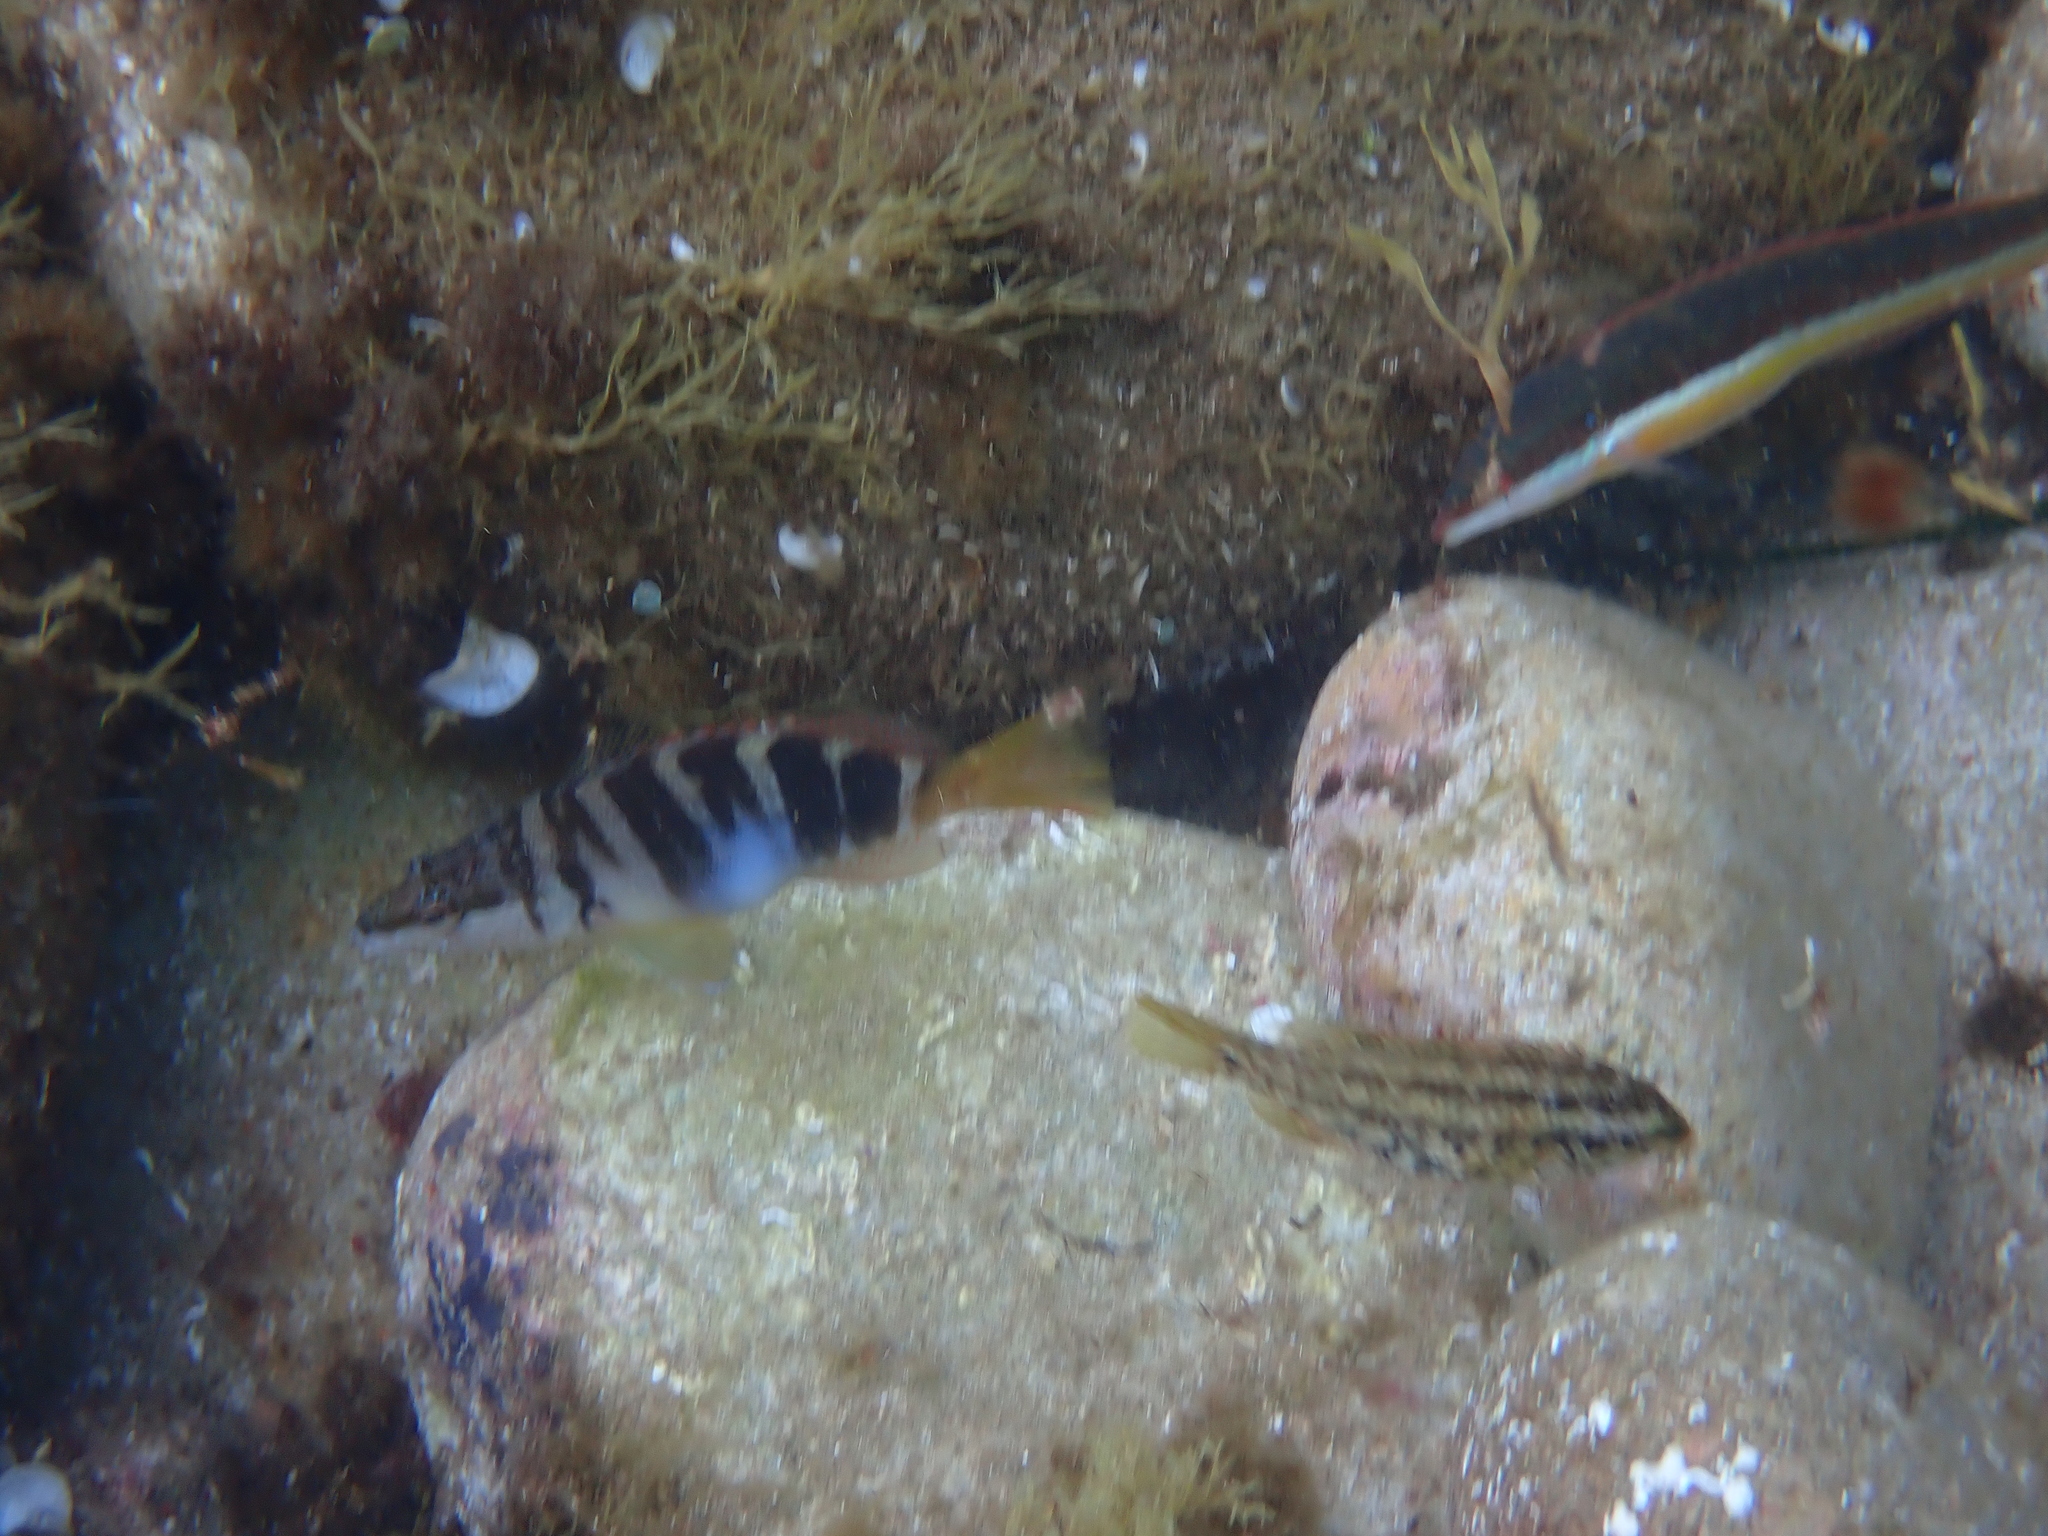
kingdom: Animalia
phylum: Chordata
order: Perciformes
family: Serranidae
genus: Serranus
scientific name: Serranus scriba
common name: Painted comber
